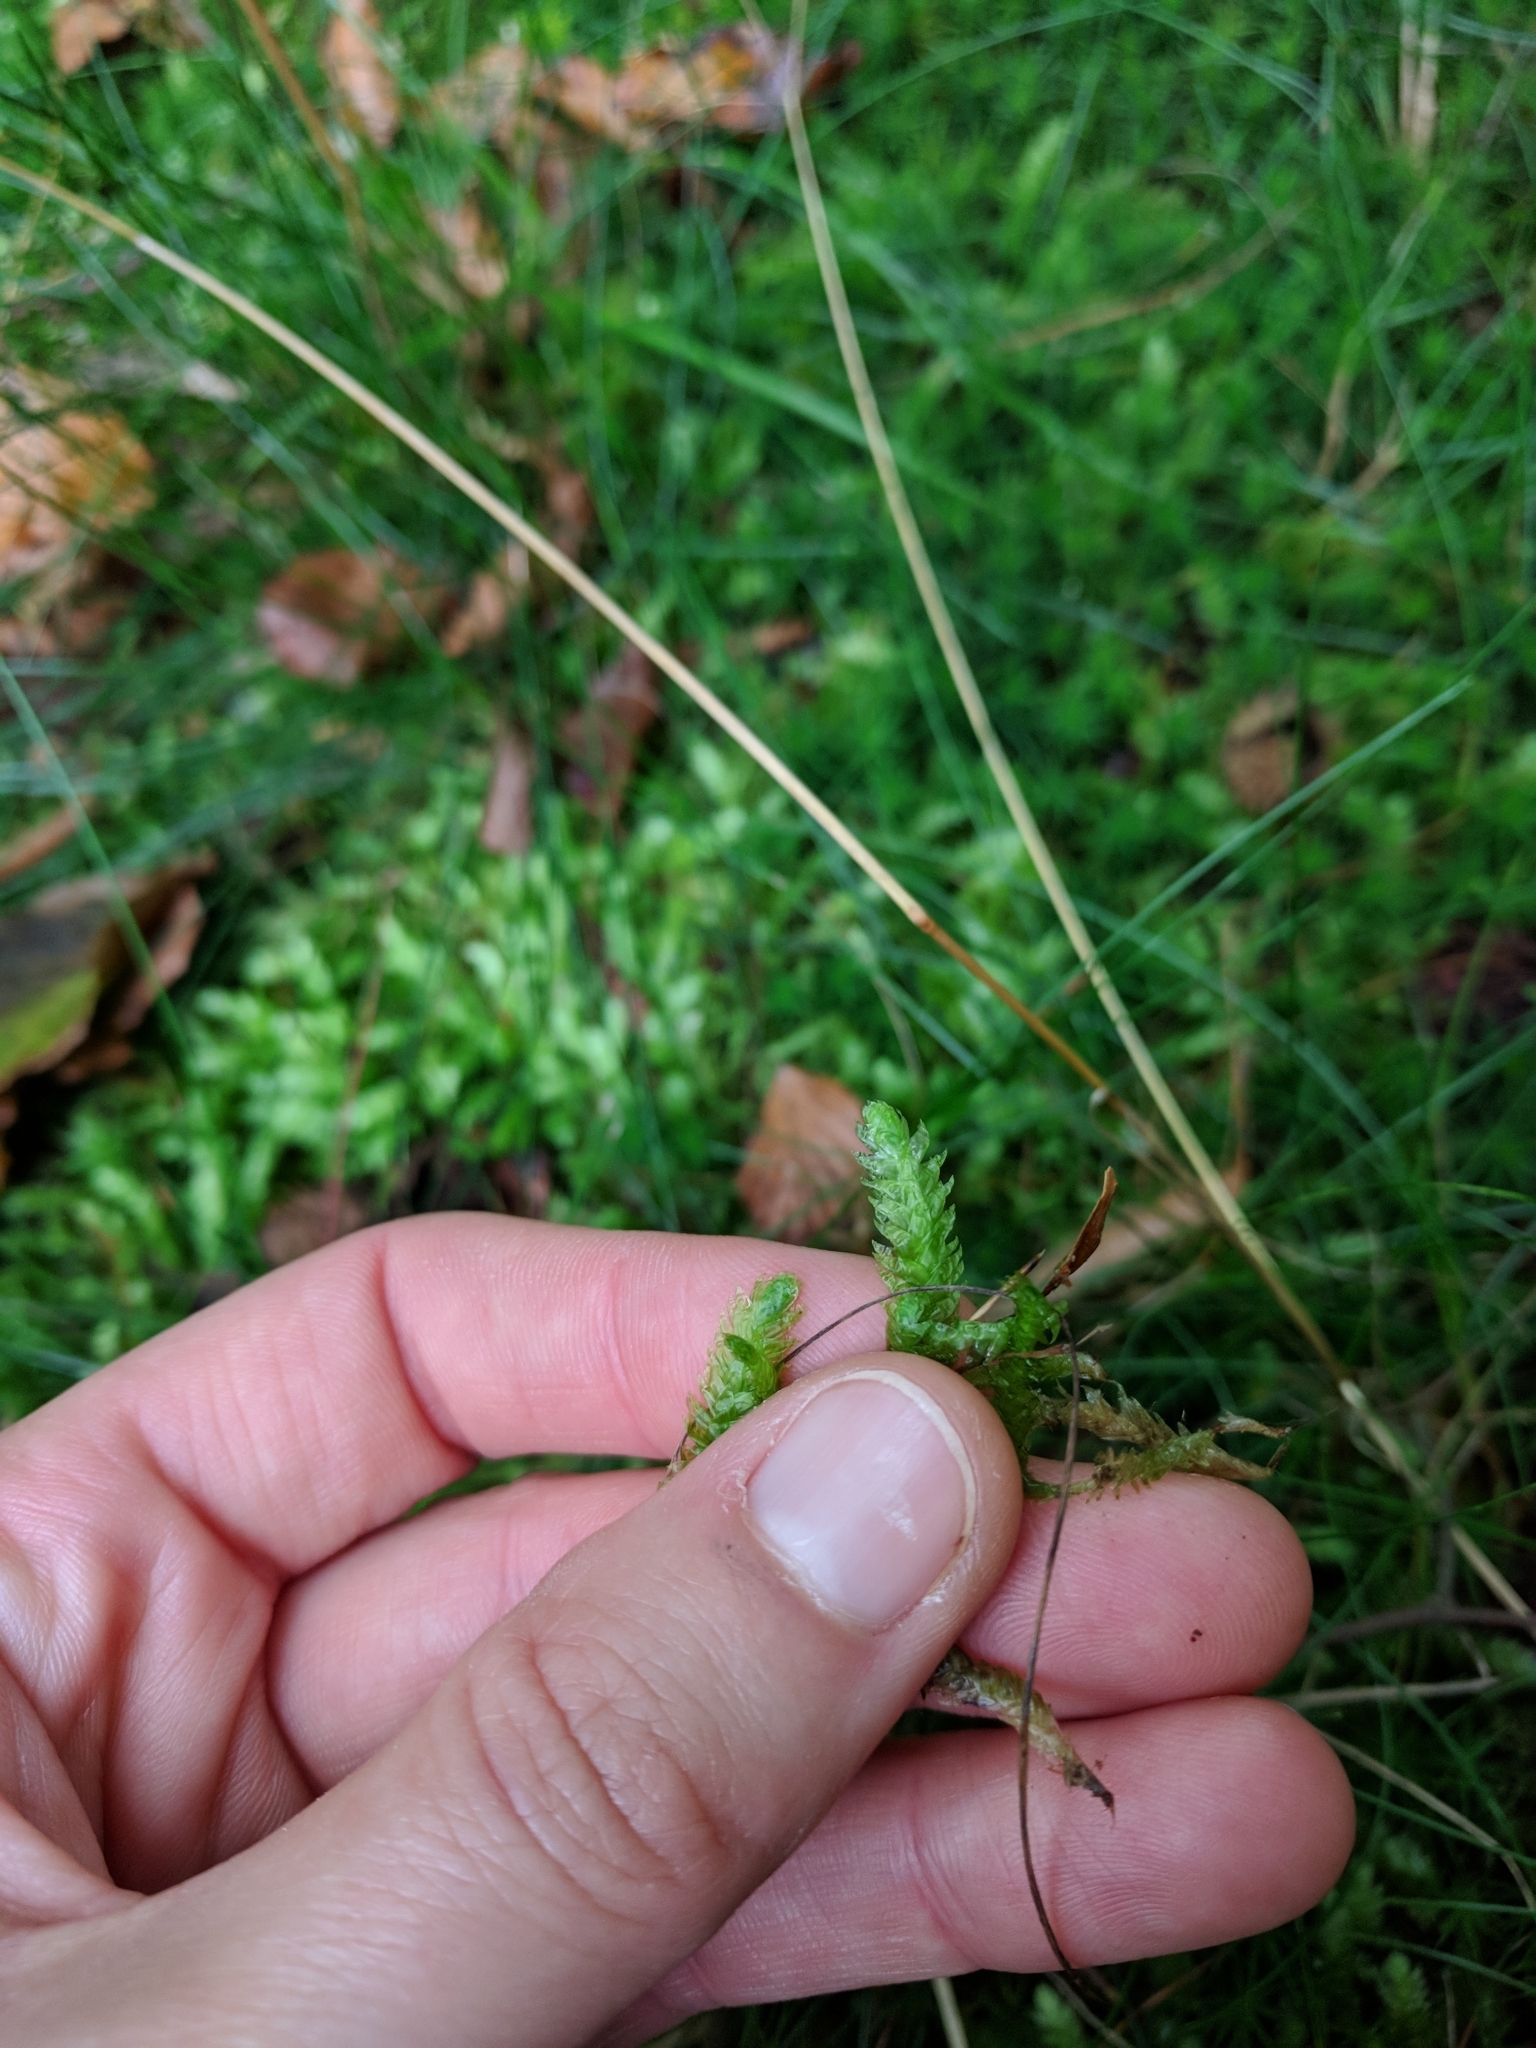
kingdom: Plantae
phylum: Bryophyta
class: Bryopsida
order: Hypnales
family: Plagiotheciaceae
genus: Plagiothecium
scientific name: Plagiothecium undulatum
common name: Waved silk-moss
